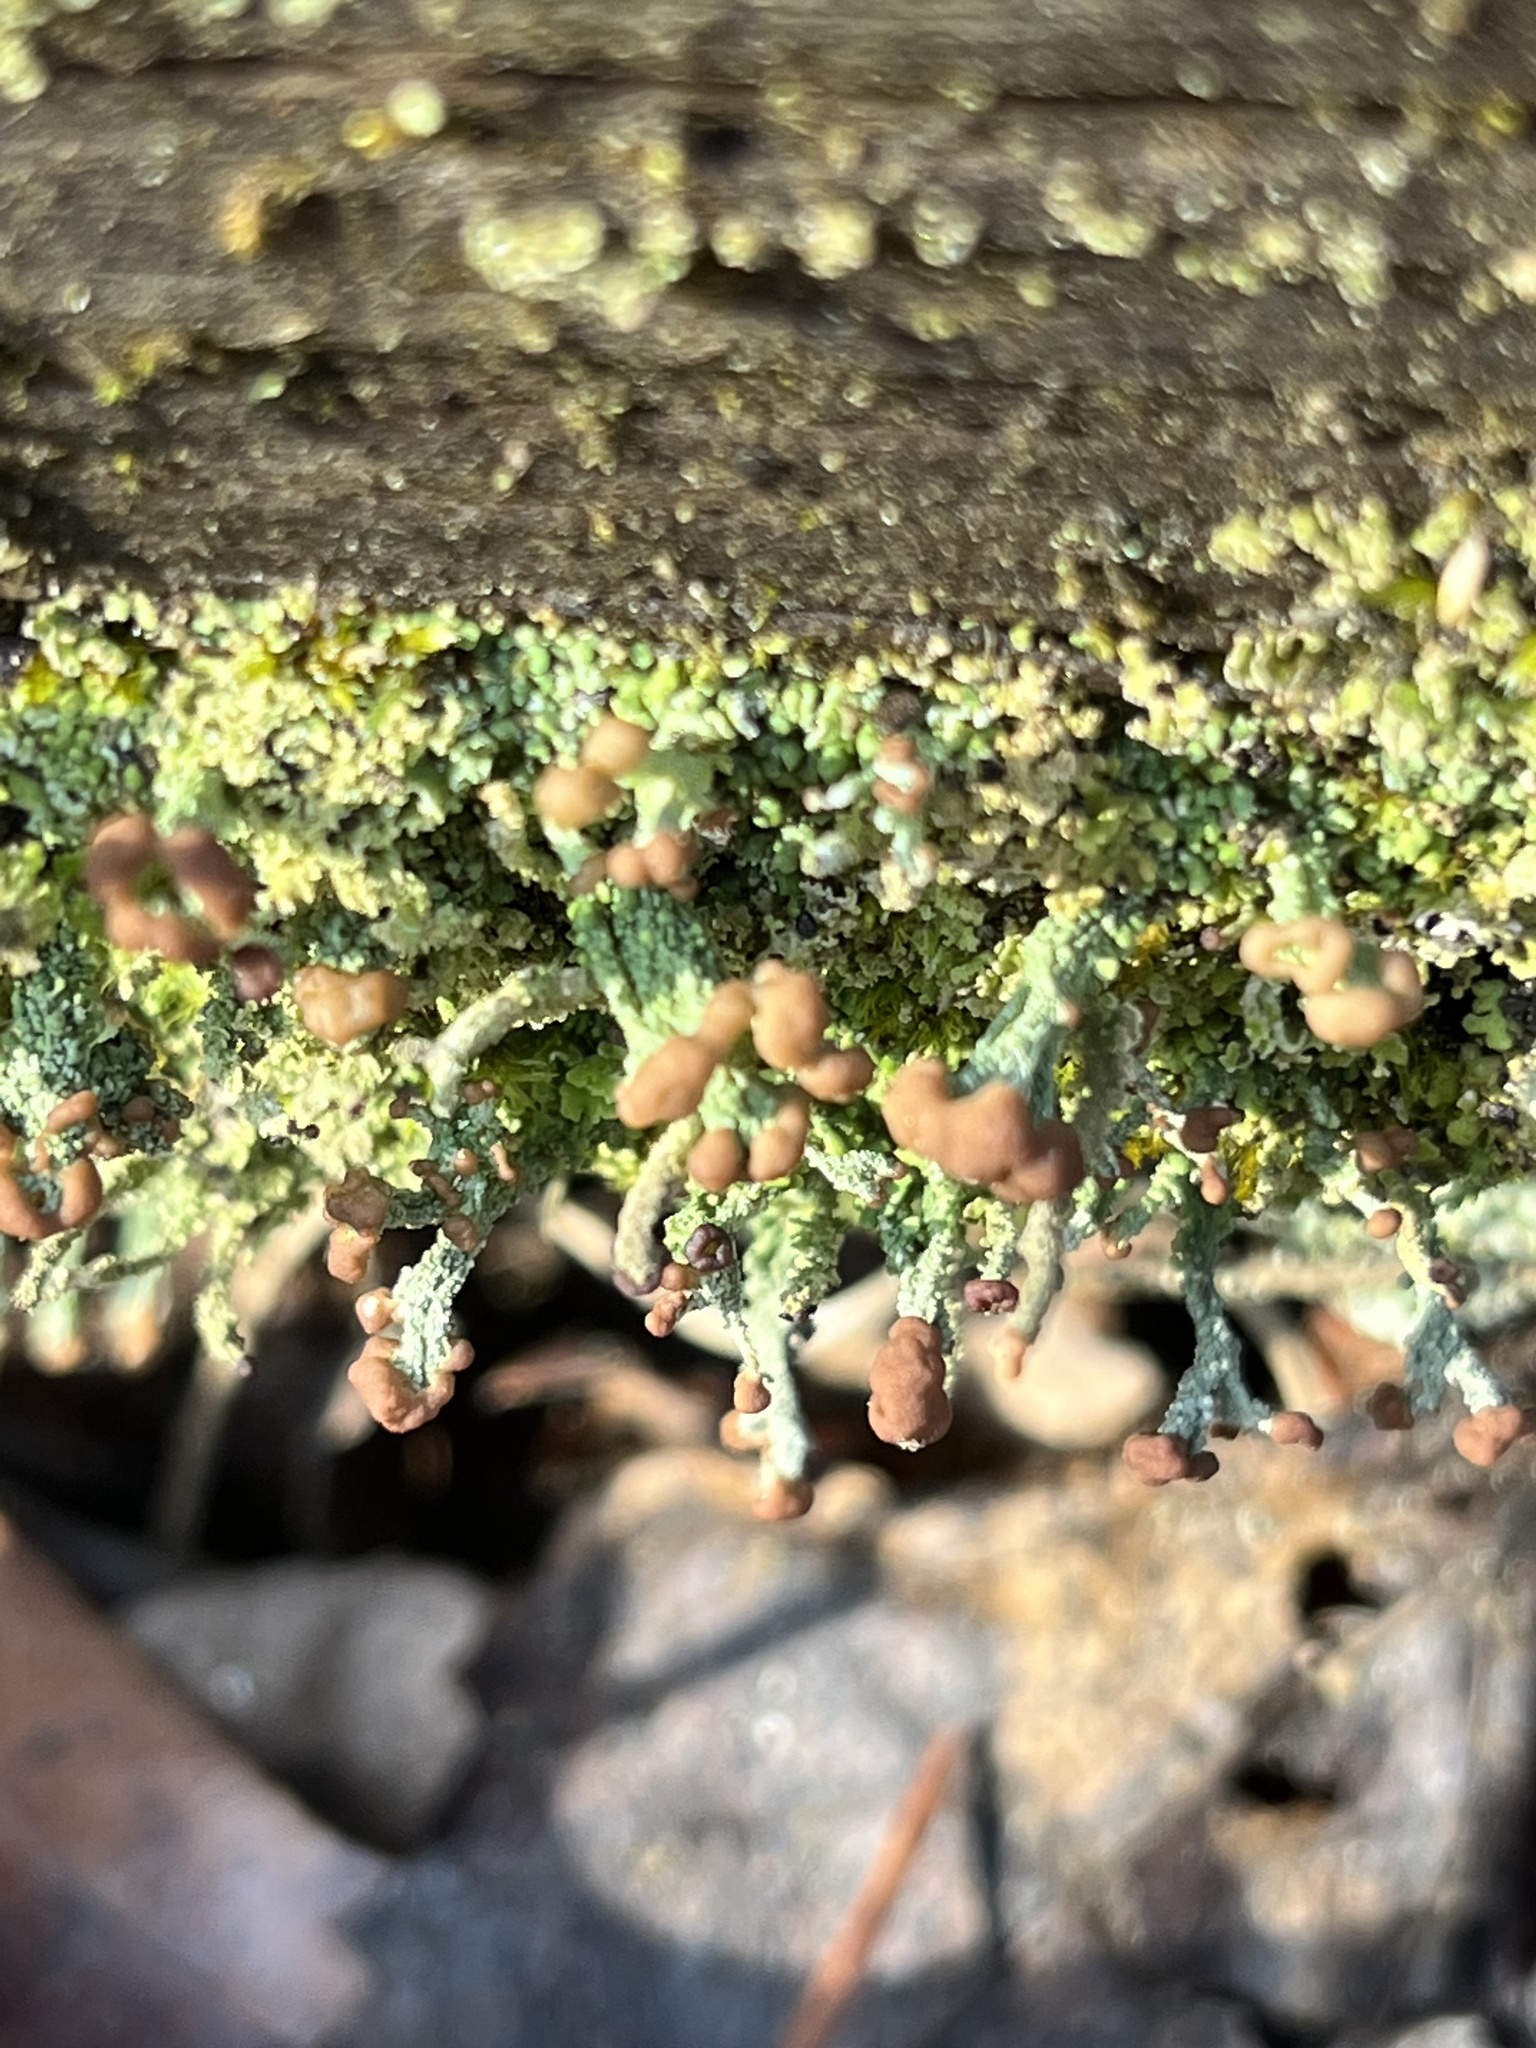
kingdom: Fungi
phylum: Ascomycota
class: Lecanoromycetes
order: Lecanorales
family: Cladoniaceae
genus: Cladonia
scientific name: Cladonia peziziformis
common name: Cup lichen
